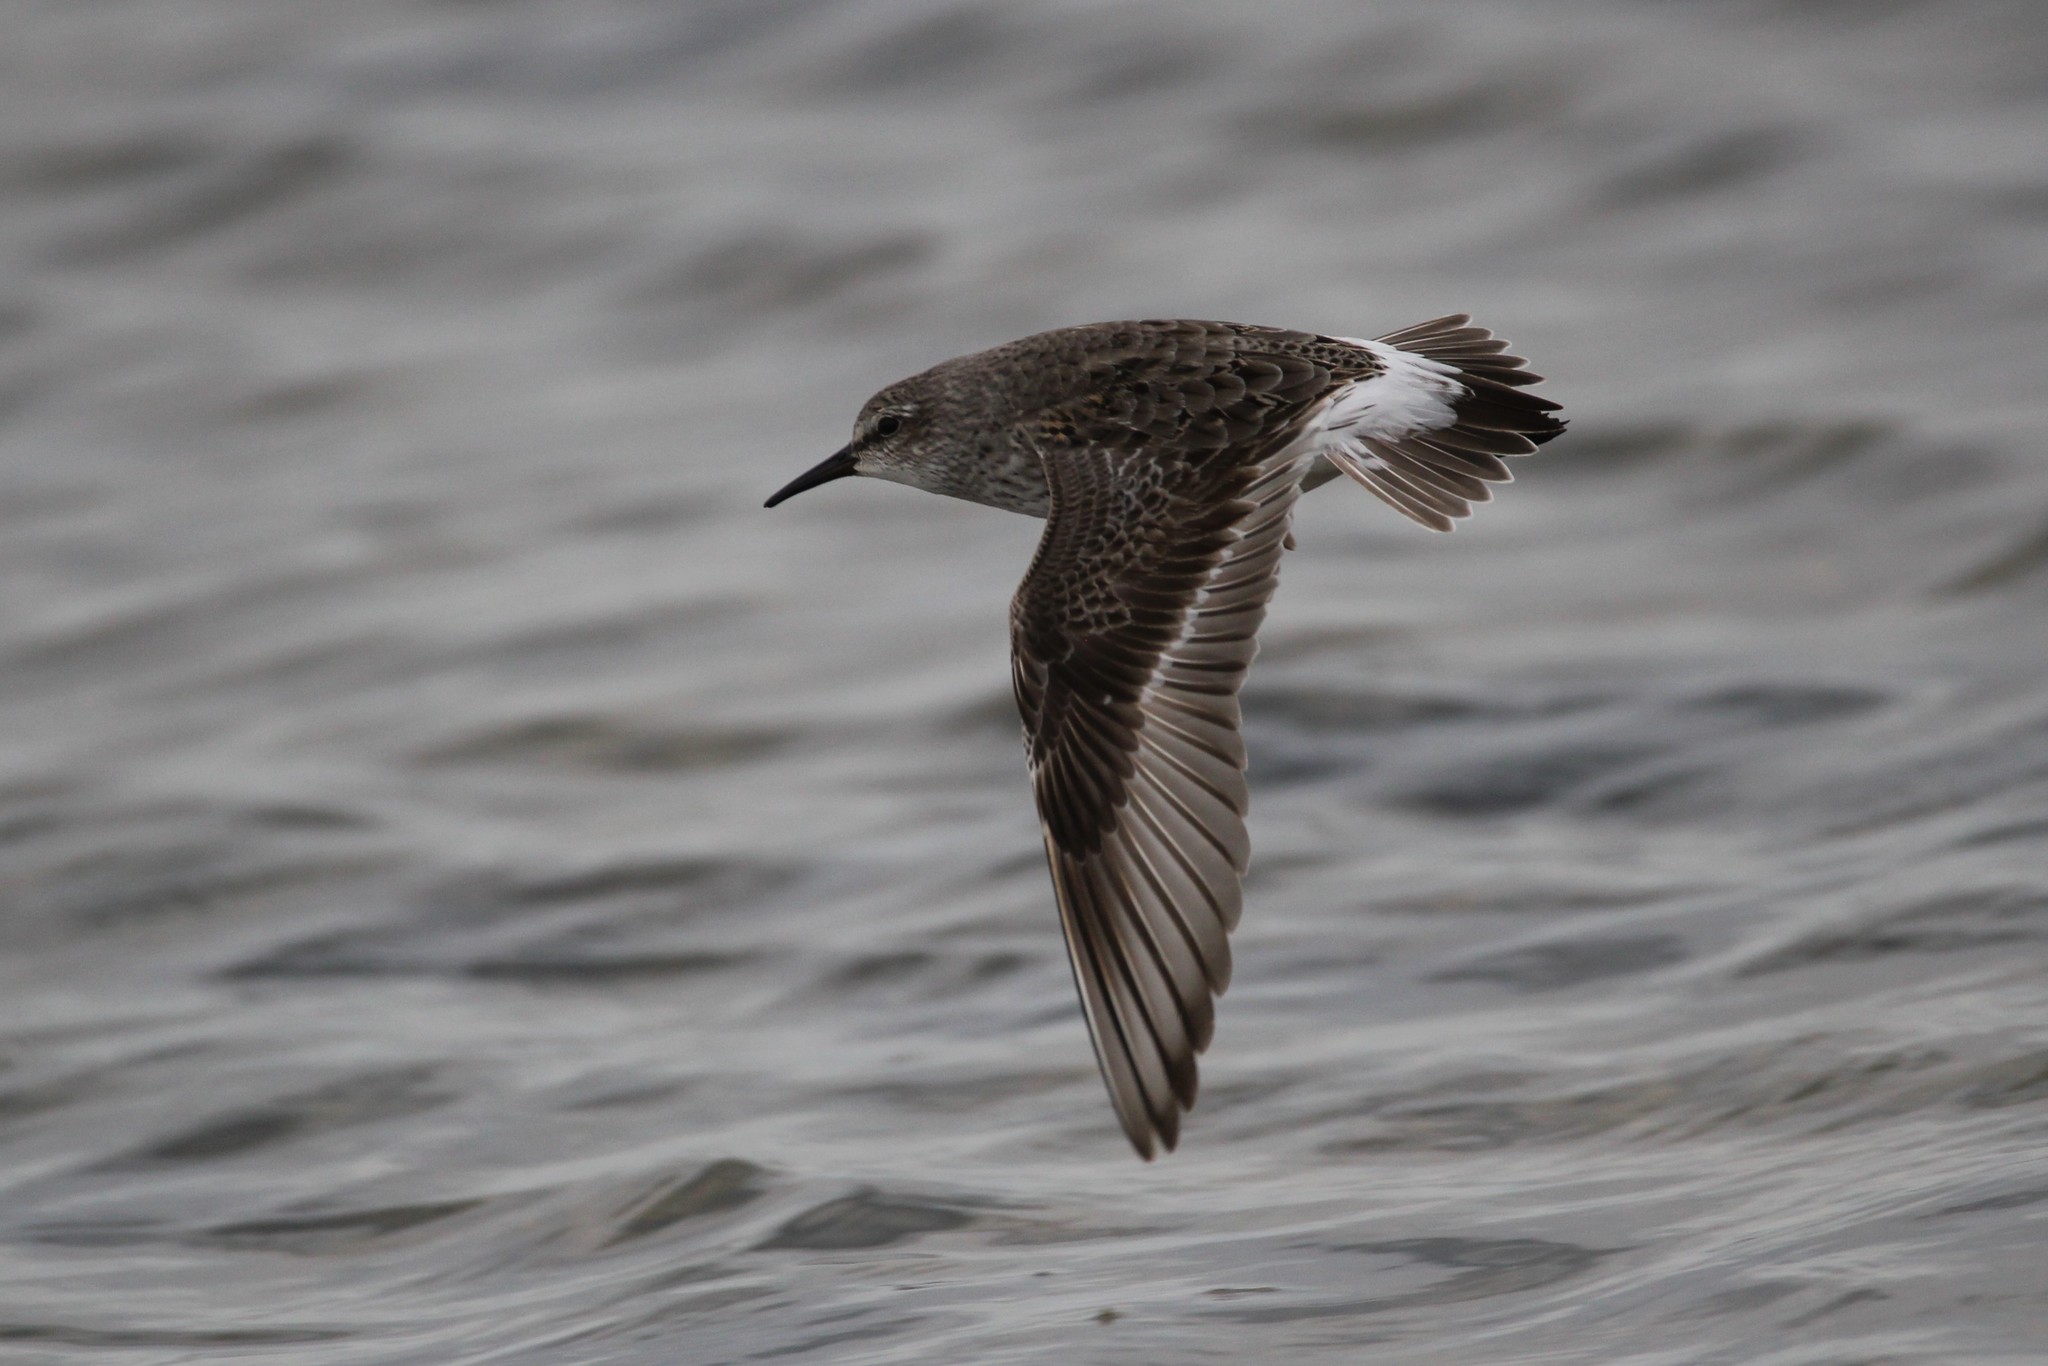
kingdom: Animalia
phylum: Chordata
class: Aves
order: Charadriiformes
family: Scolopacidae
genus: Calidris
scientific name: Calidris fuscicollis
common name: White-rumped sandpiper
